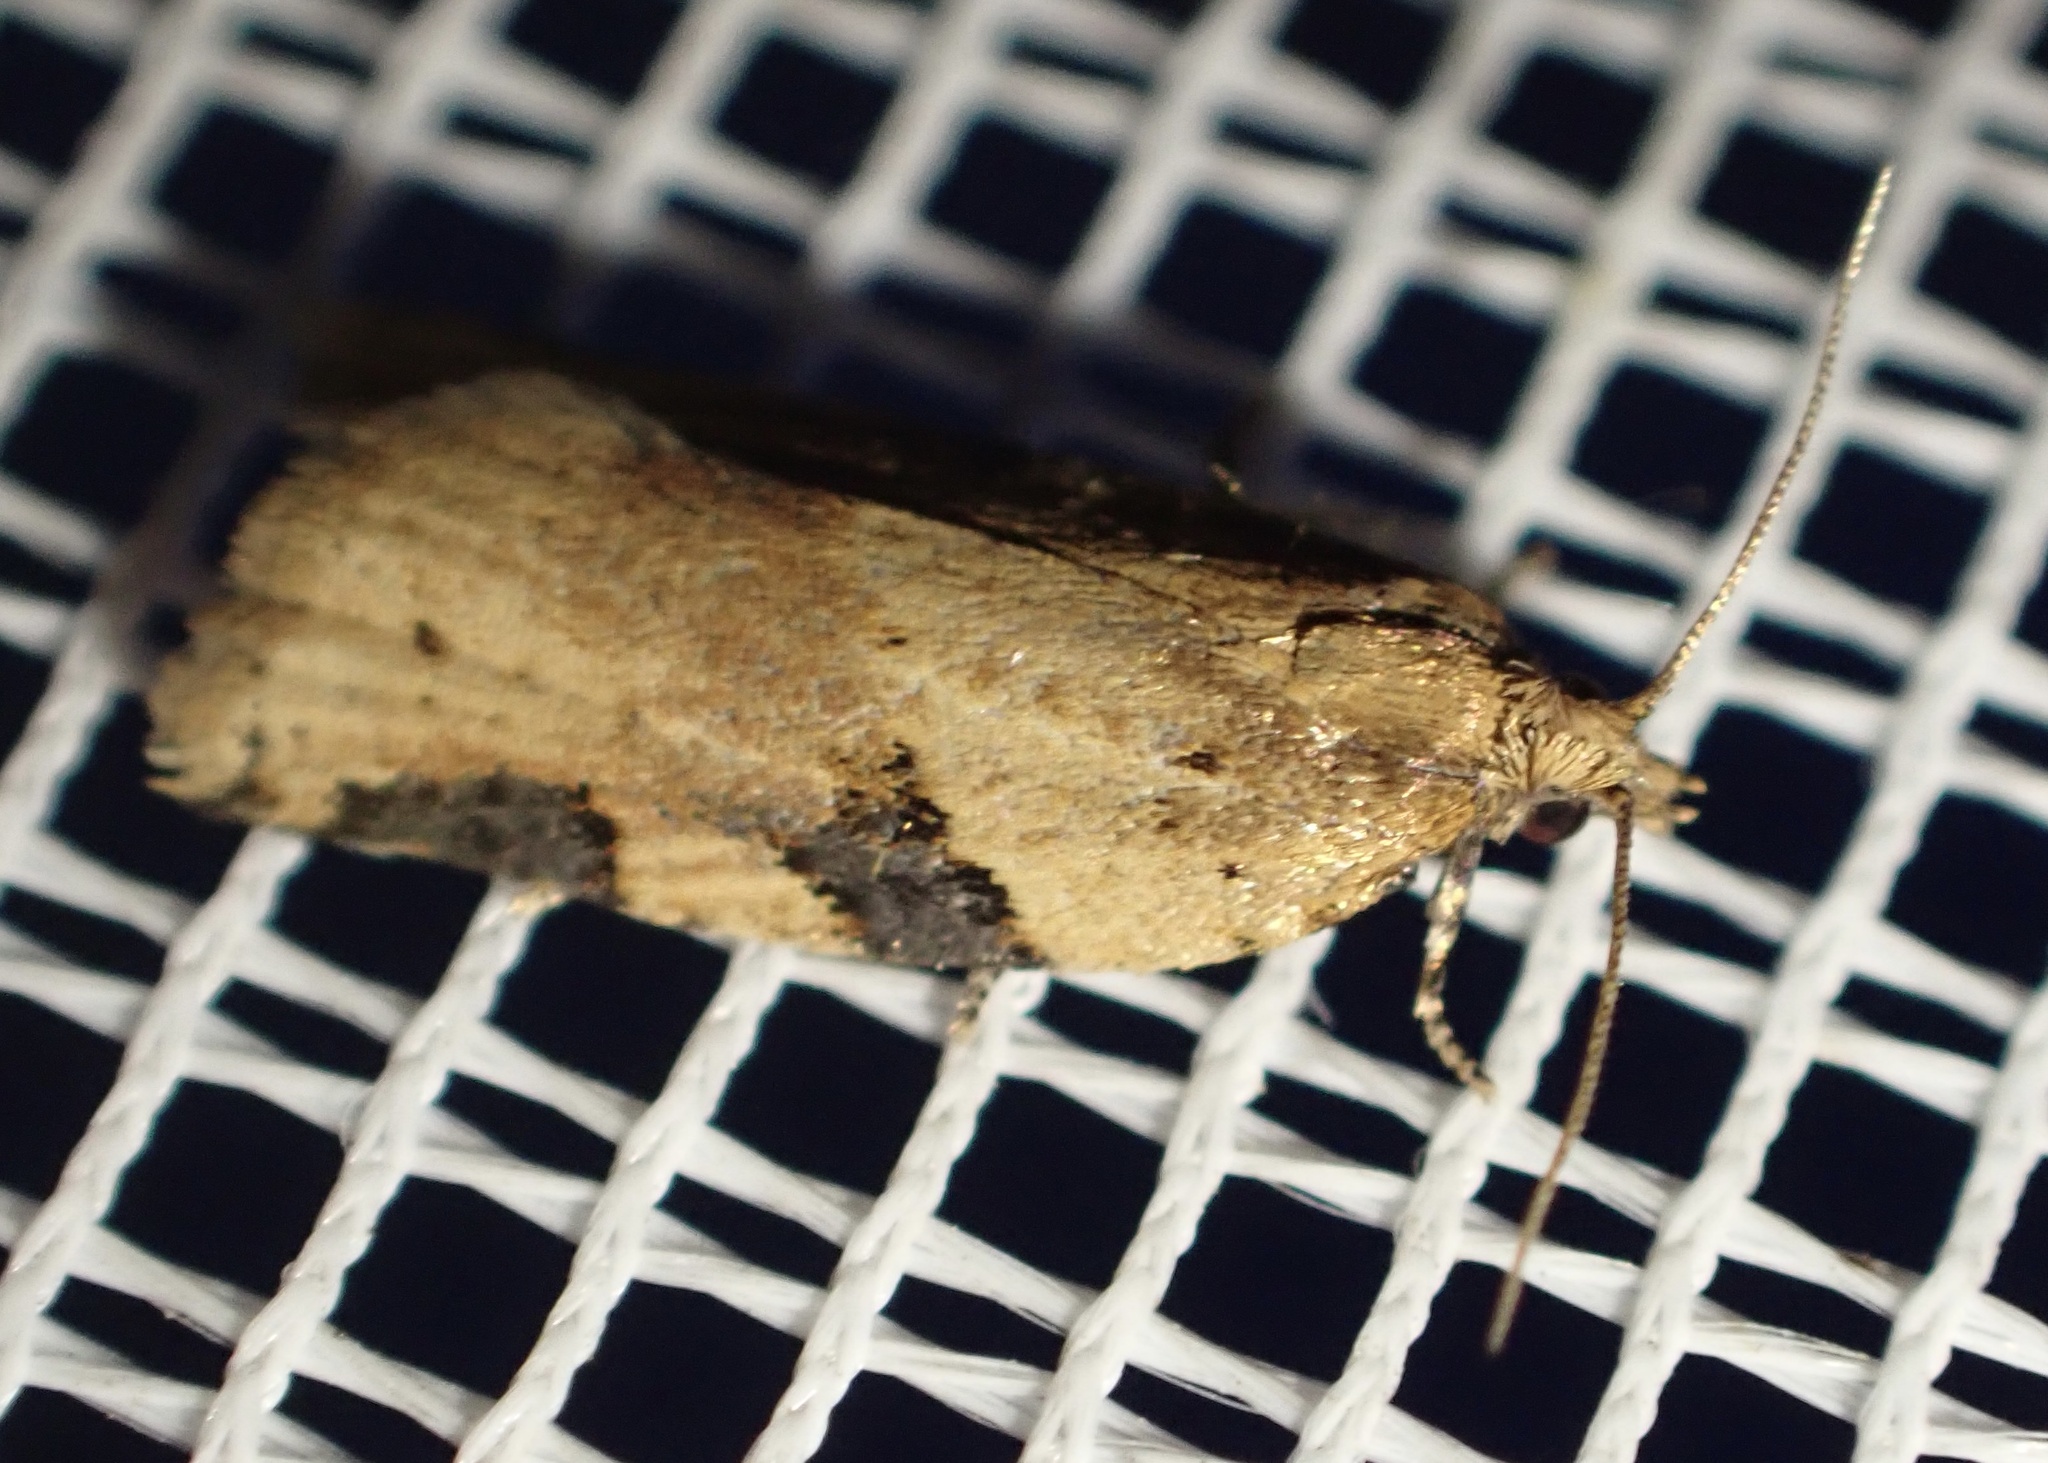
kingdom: Animalia
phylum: Arthropoda
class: Insecta
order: Lepidoptera
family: Tortricidae
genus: Clepsis
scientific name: Clepsis spectrana
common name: Cyclamen tortrix
